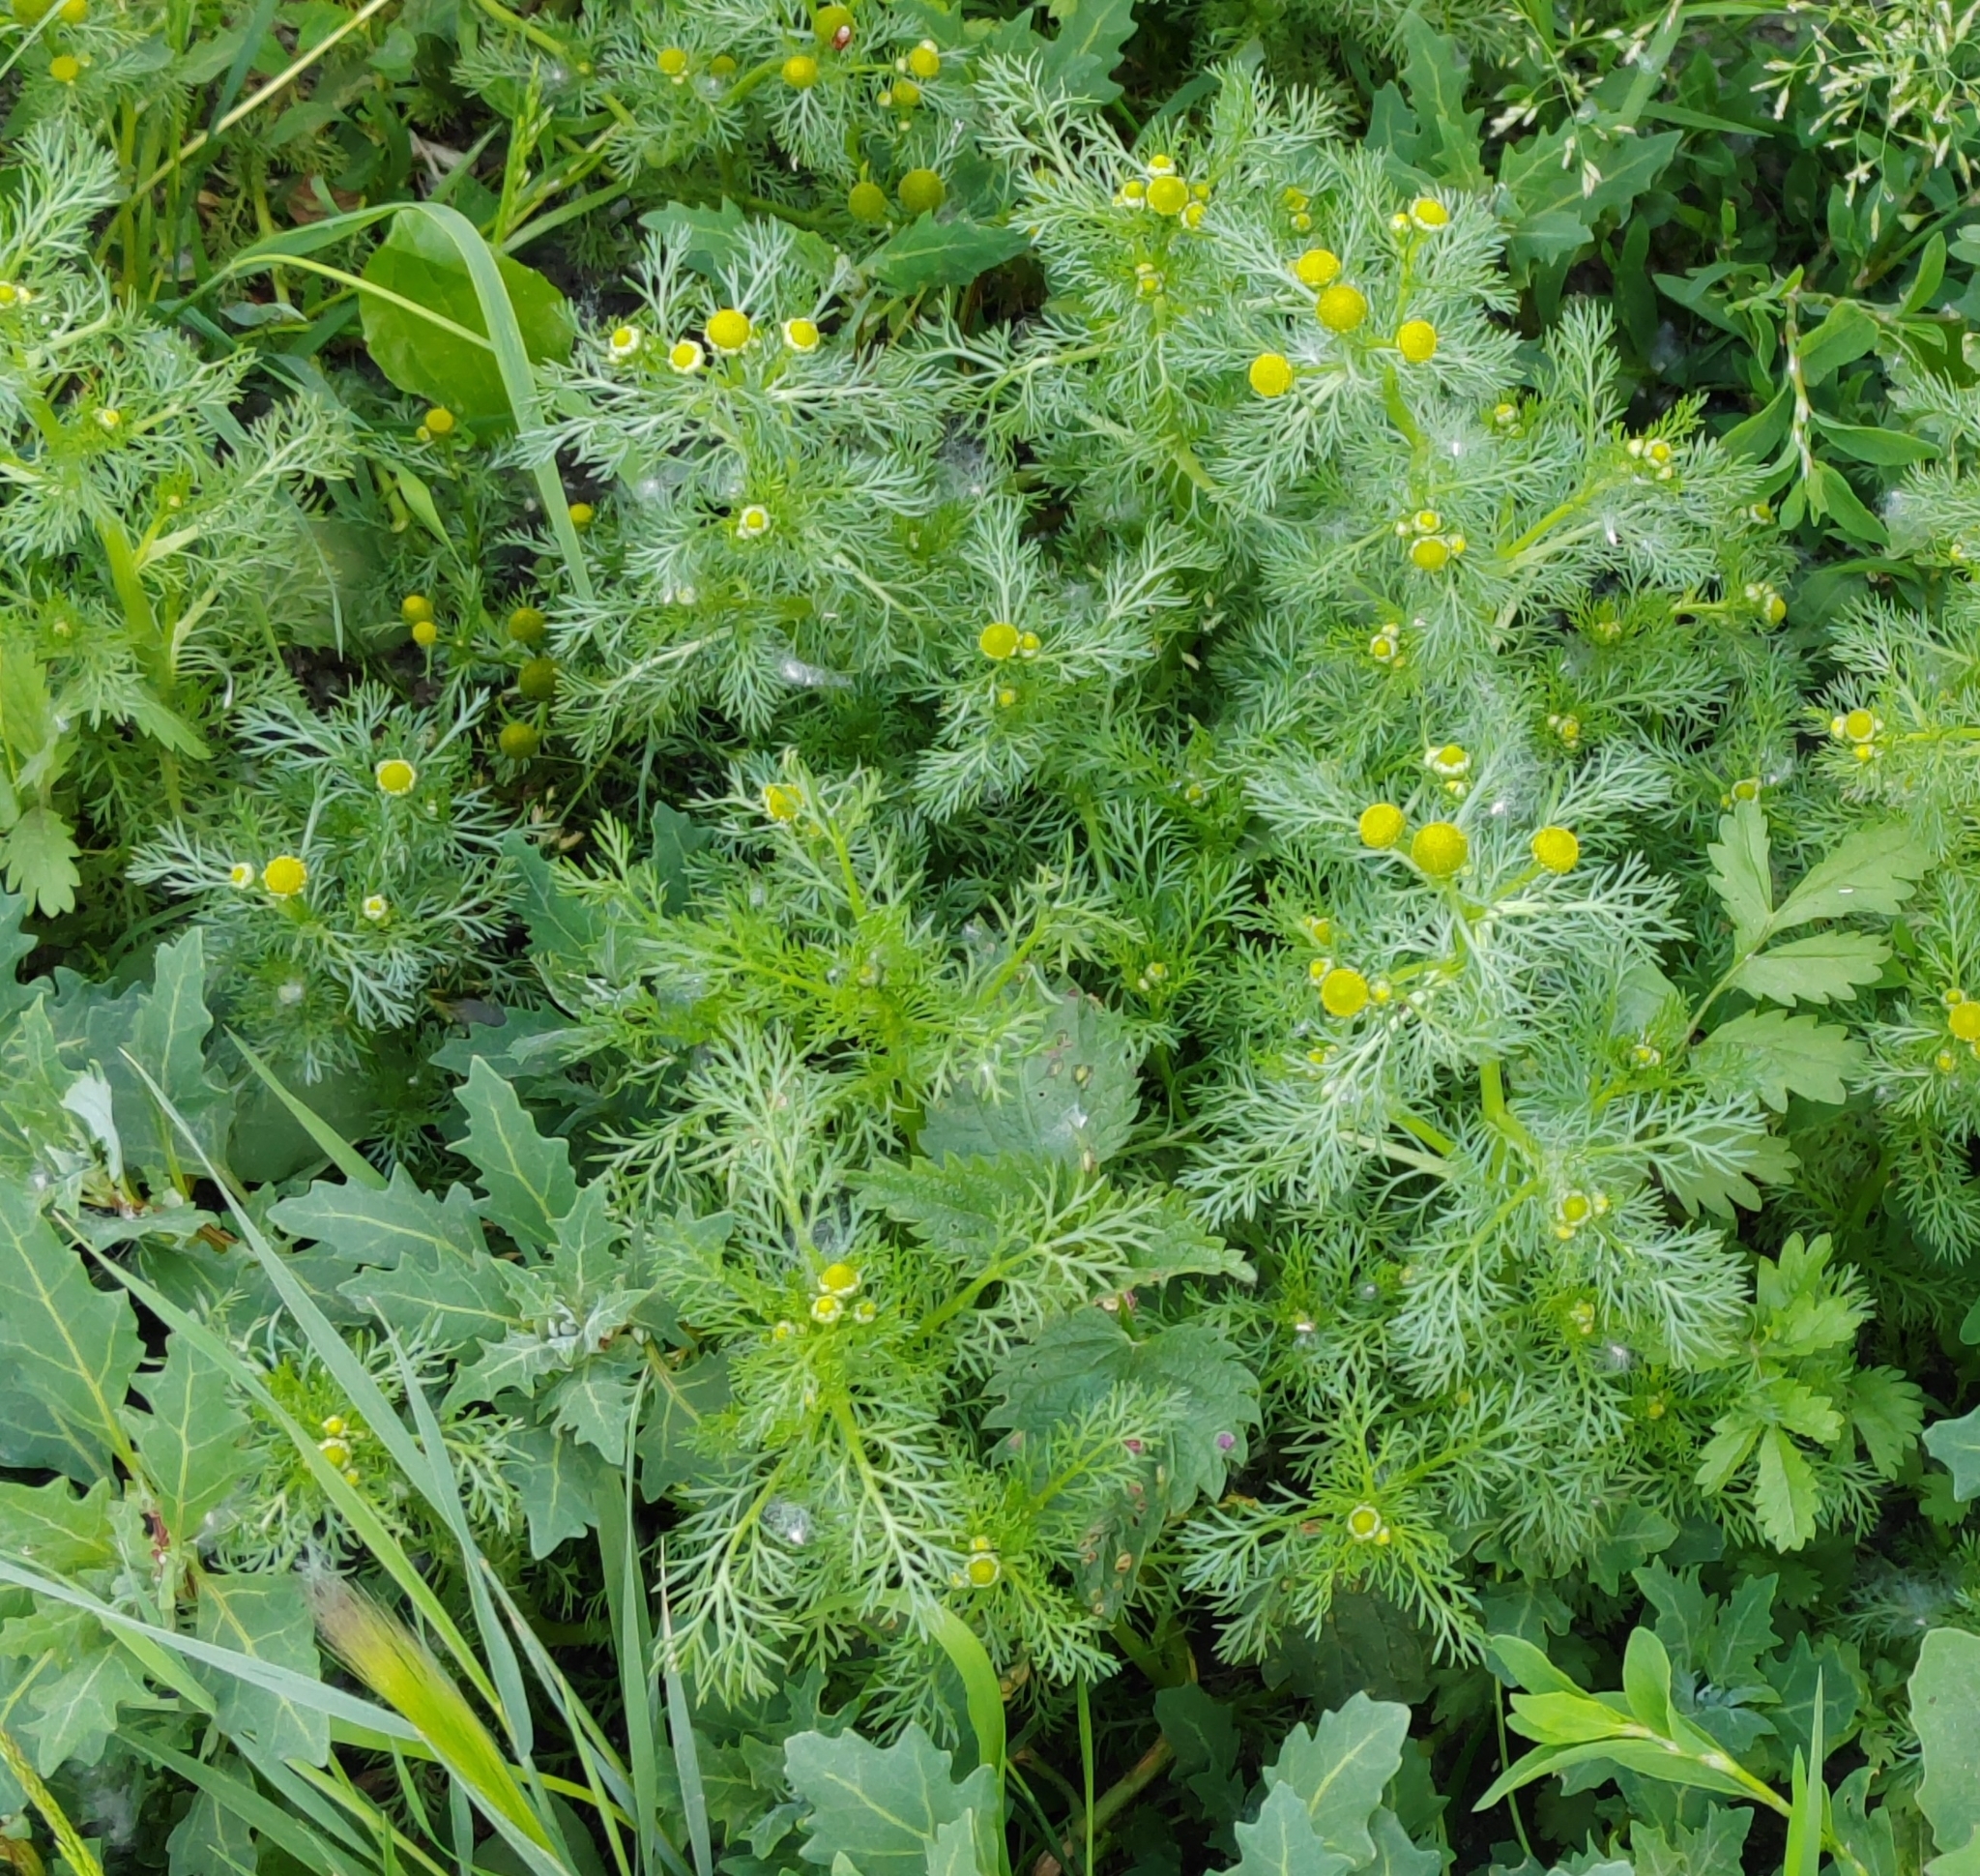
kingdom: Plantae
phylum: Tracheophyta
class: Magnoliopsida
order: Asterales
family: Asteraceae
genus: Matricaria
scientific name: Matricaria discoidea
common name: Disc mayweed
